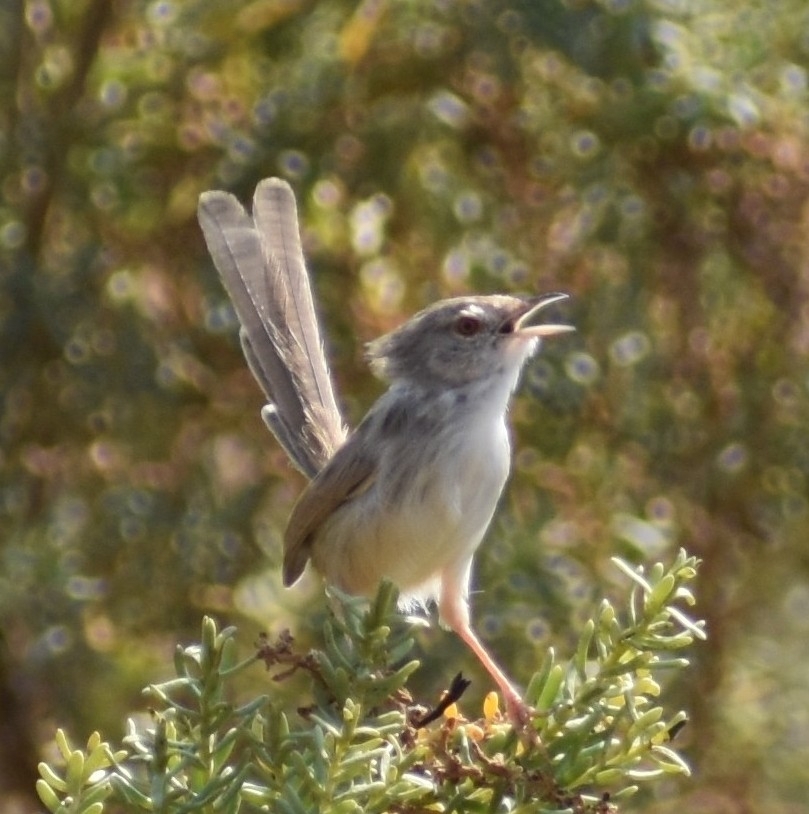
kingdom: Animalia
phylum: Chordata
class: Aves
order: Passeriformes
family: Cisticolidae
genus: Prinia
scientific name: Prinia gracilis
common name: Graceful prinia
